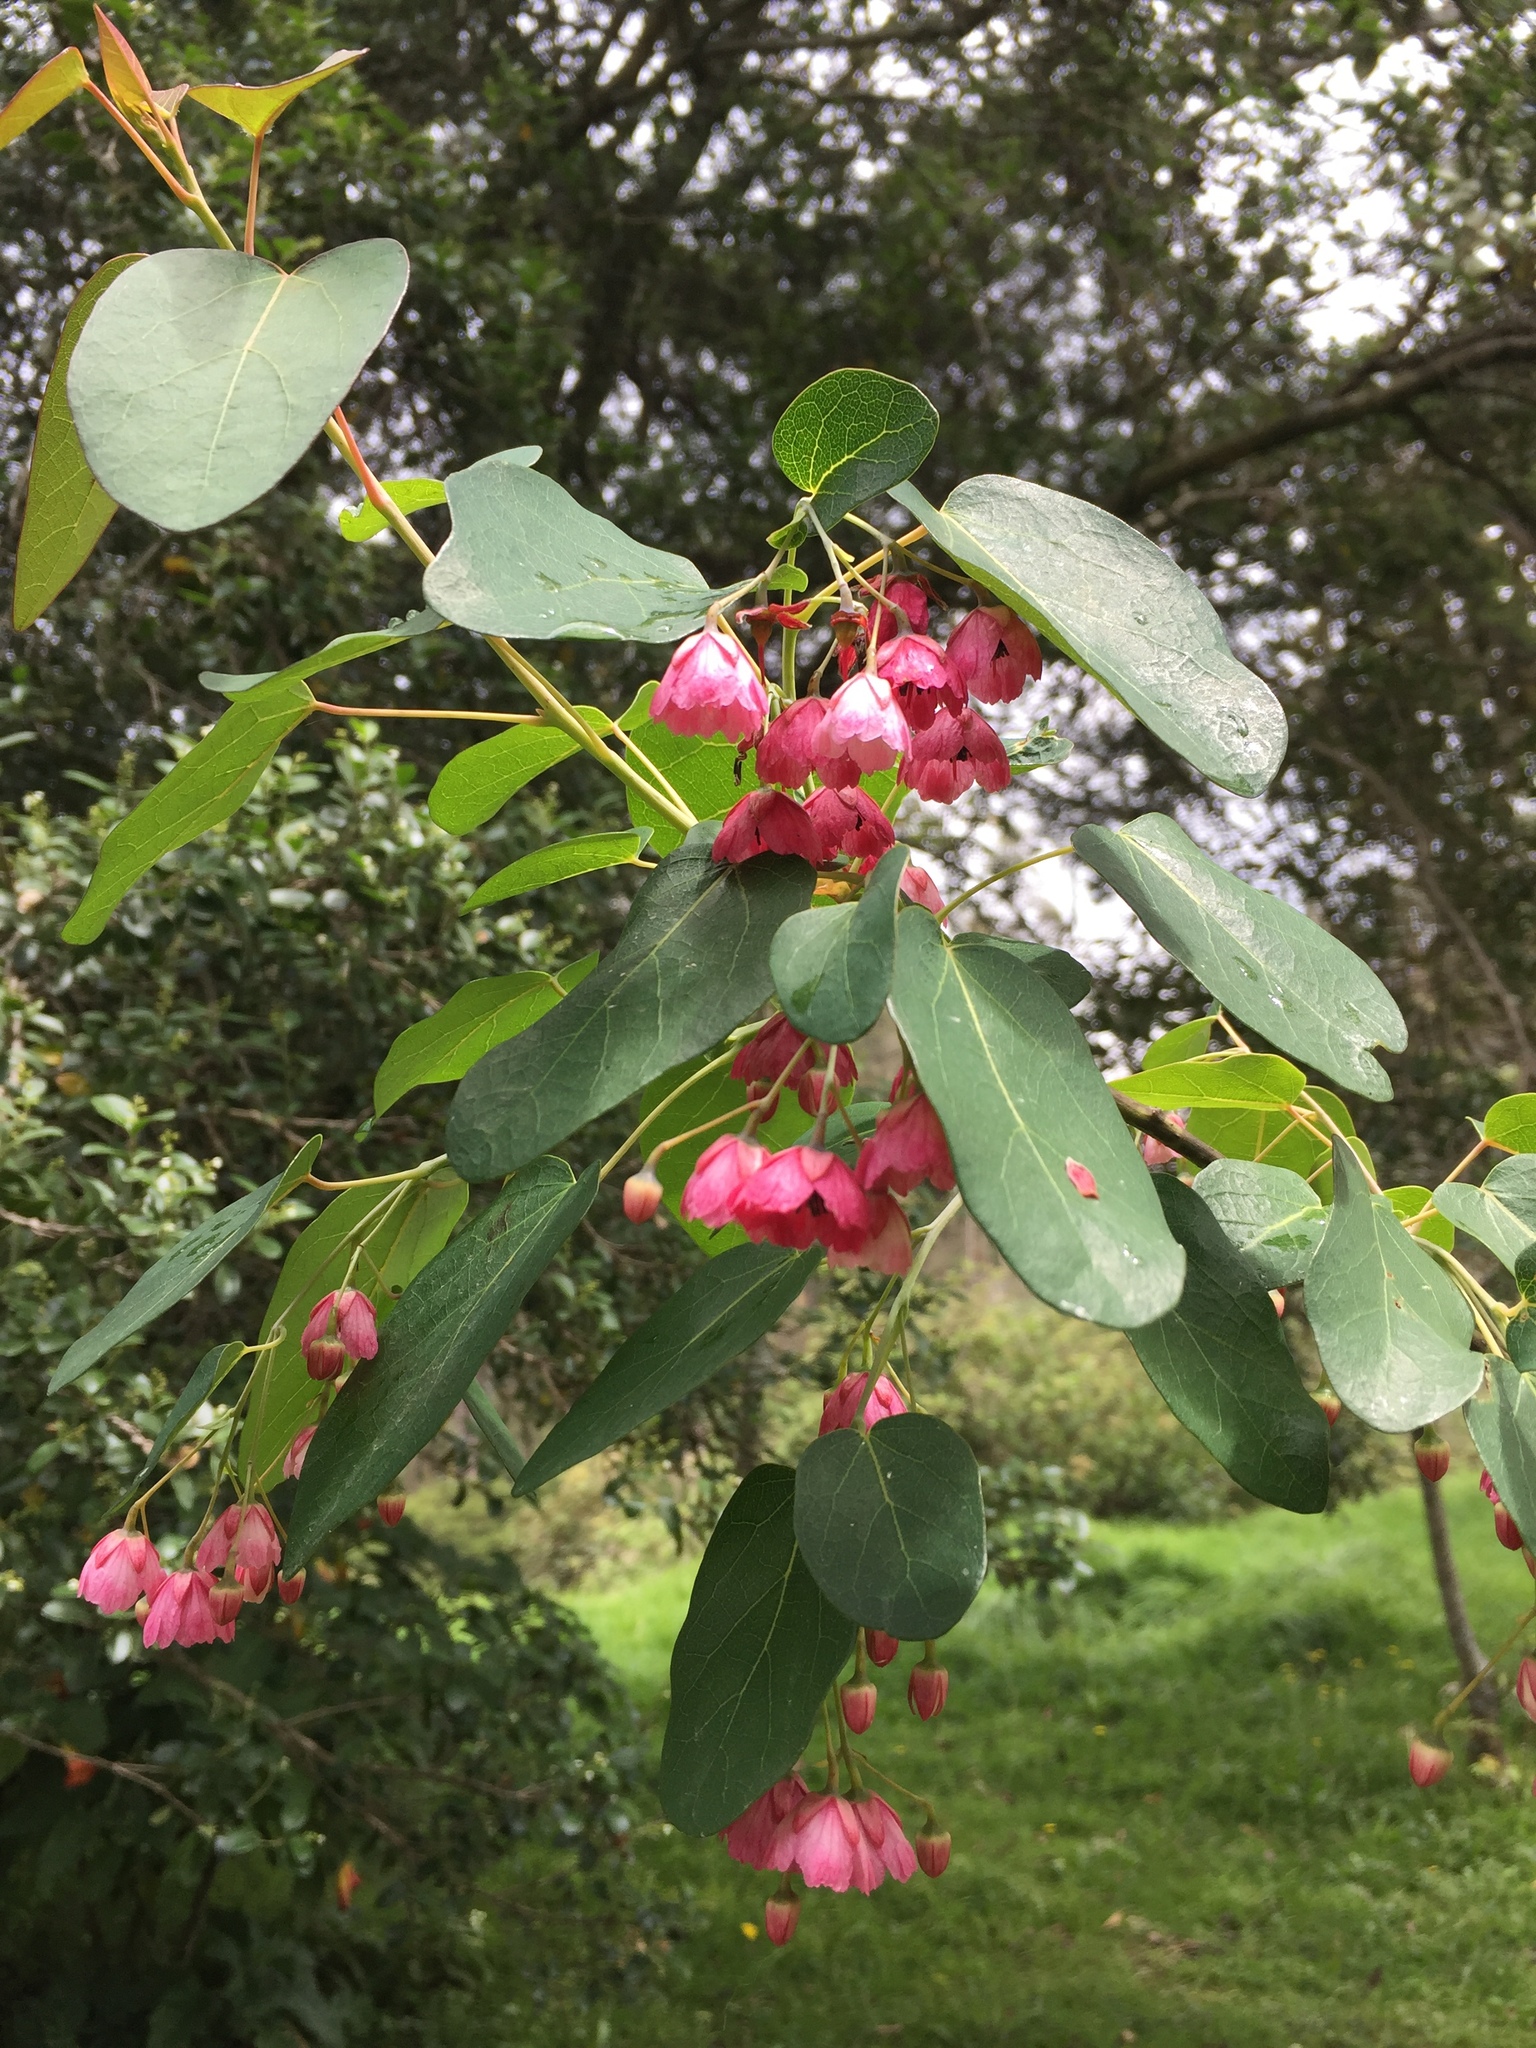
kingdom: Plantae
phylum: Tracheophyta
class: Magnoliopsida
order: Oxalidales
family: Elaeocarpaceae
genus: Vallea
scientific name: Vallea stipularis
